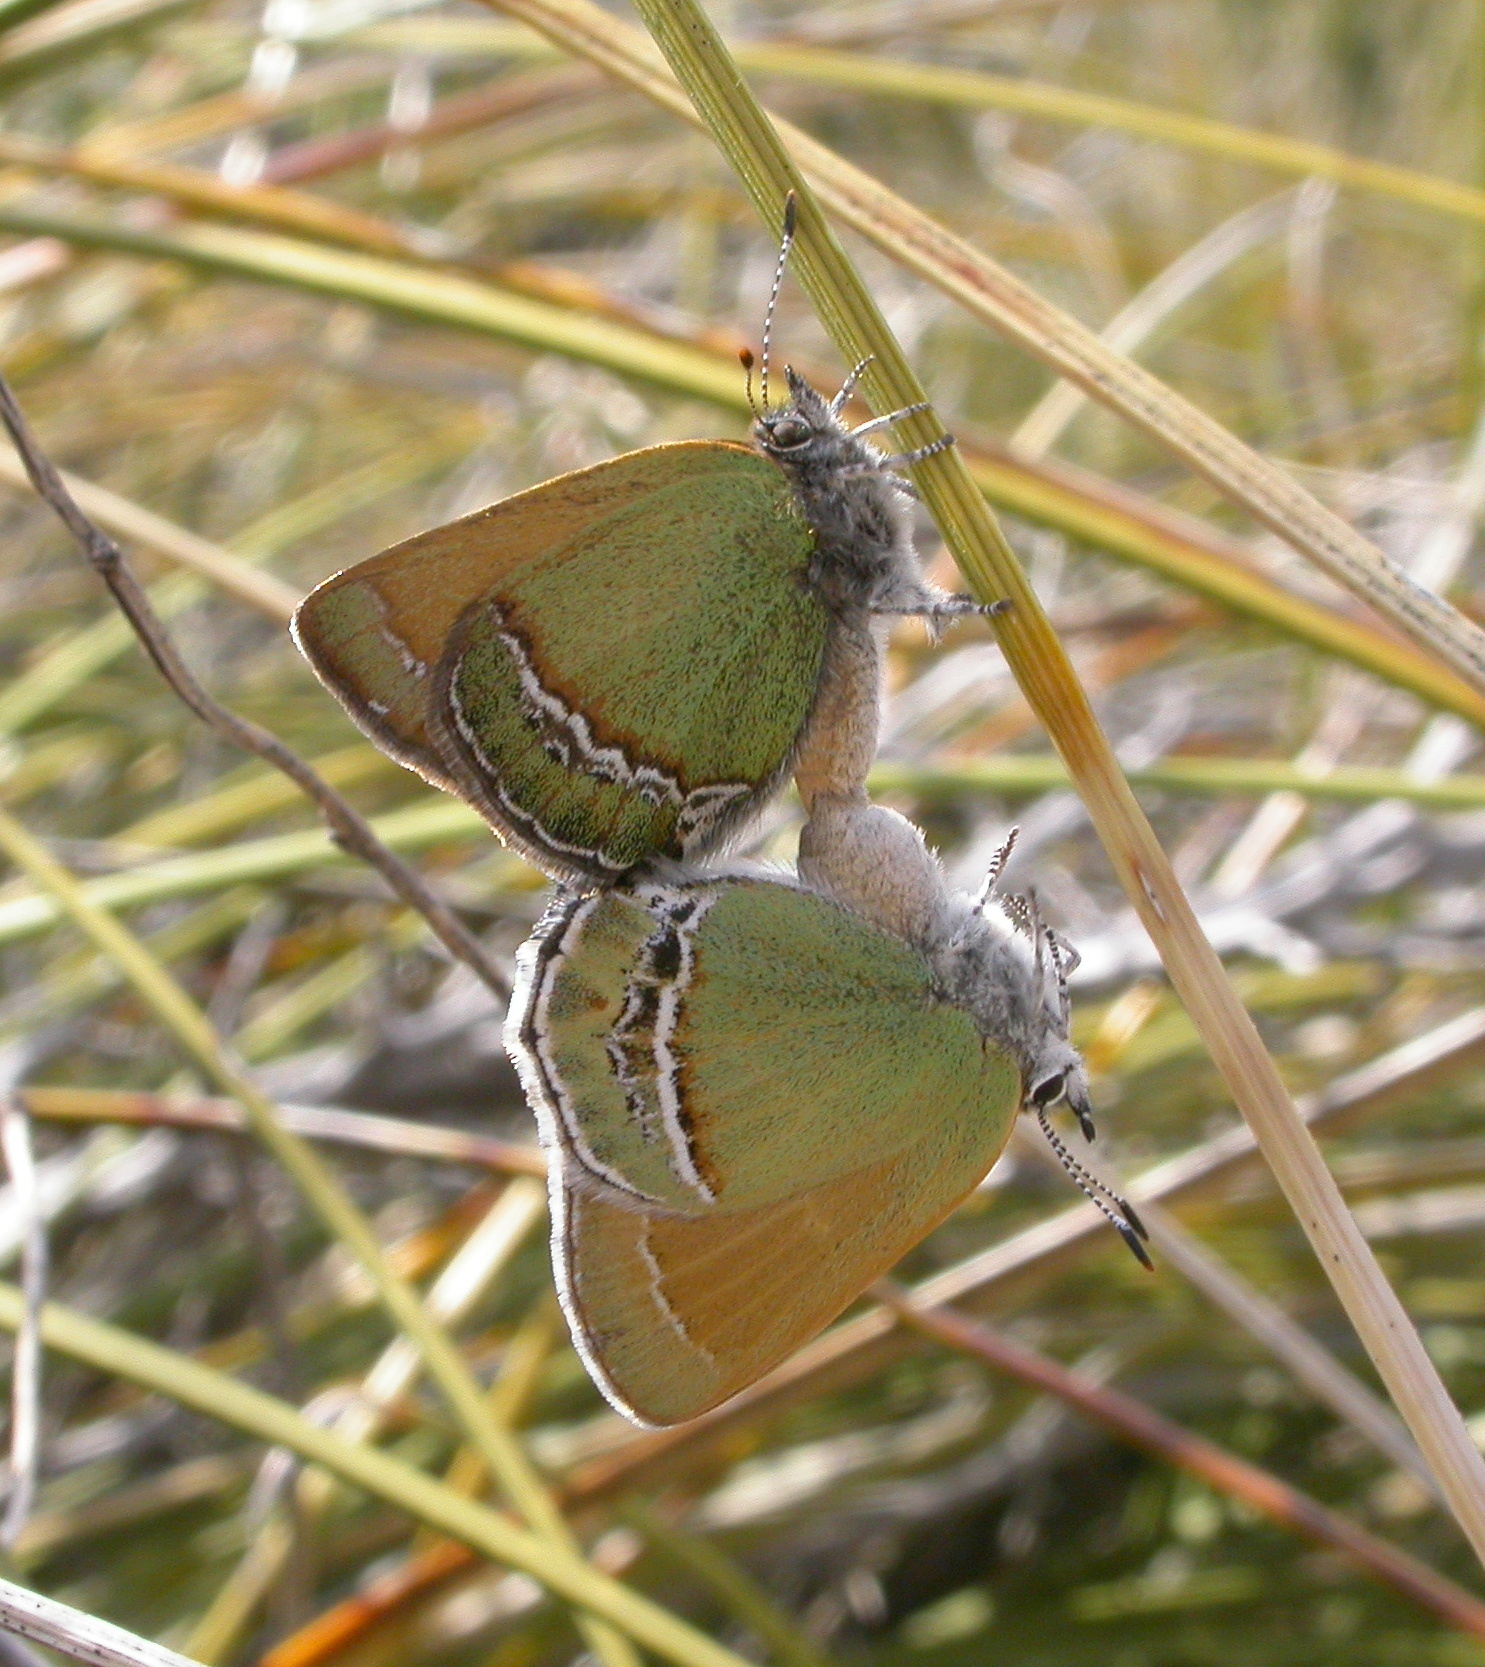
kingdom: Animalia
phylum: Arthropoda
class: Insecta
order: Lepidoptera
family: Lycaenidae
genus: Sandia
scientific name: Sandia mcfarlandi
